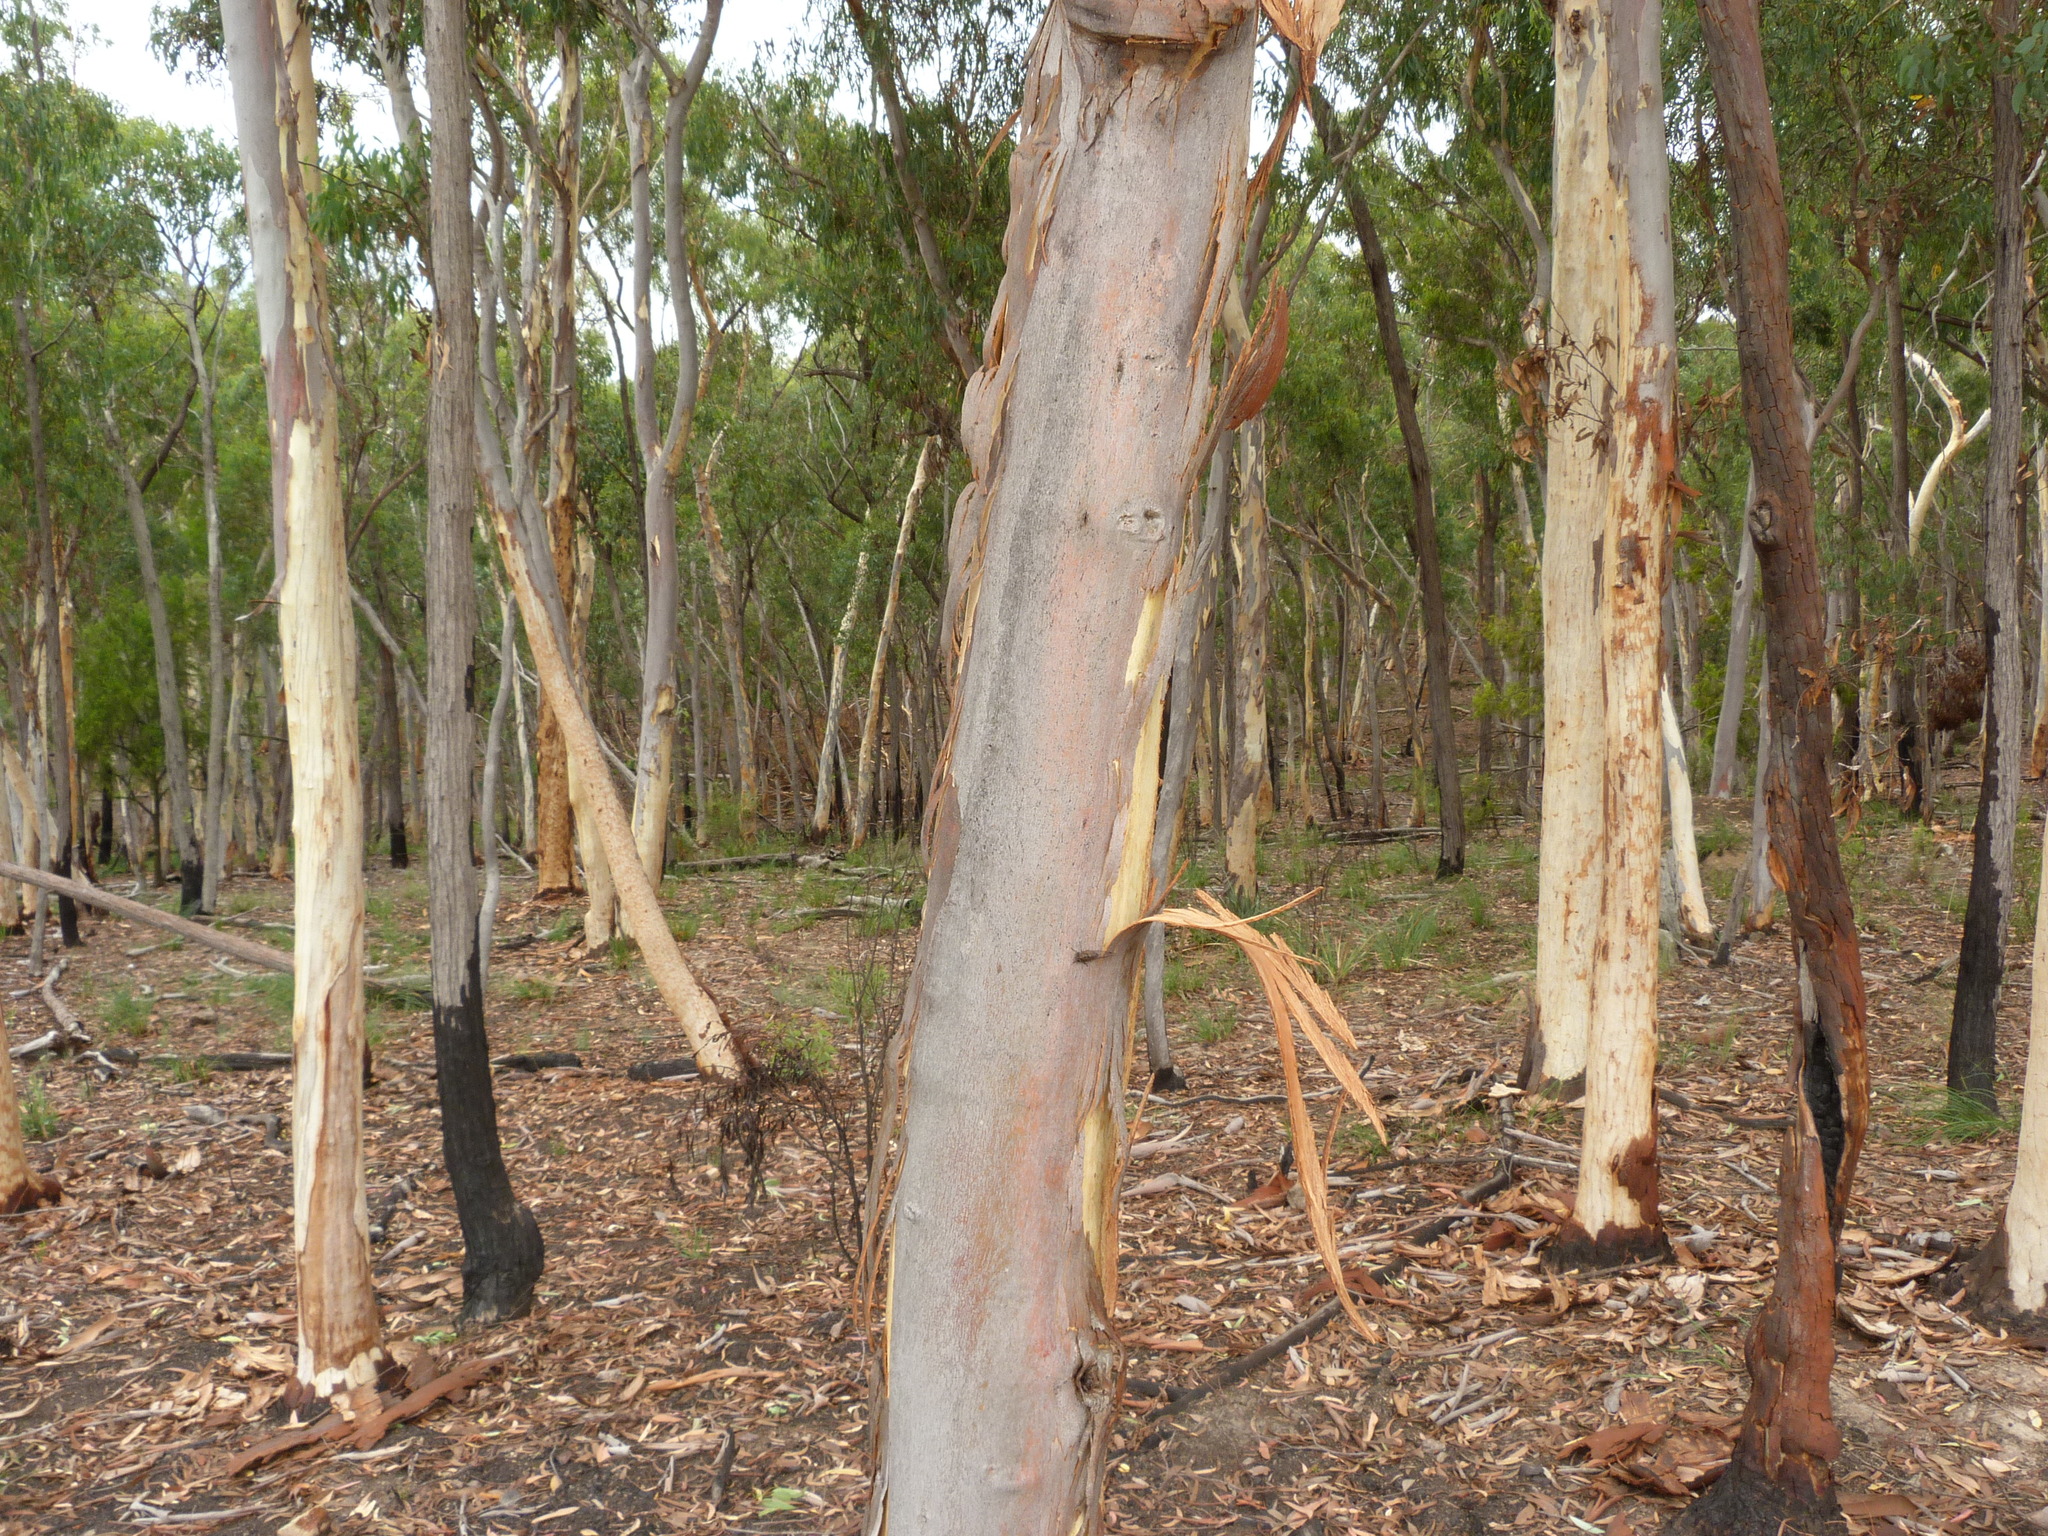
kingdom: Plantae
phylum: Tracheophyta
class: Magnoliopsida
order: Myrtales
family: Myrtaceae
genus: Eucalyptus
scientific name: Eucalyptus mannifera
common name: Manna gum
